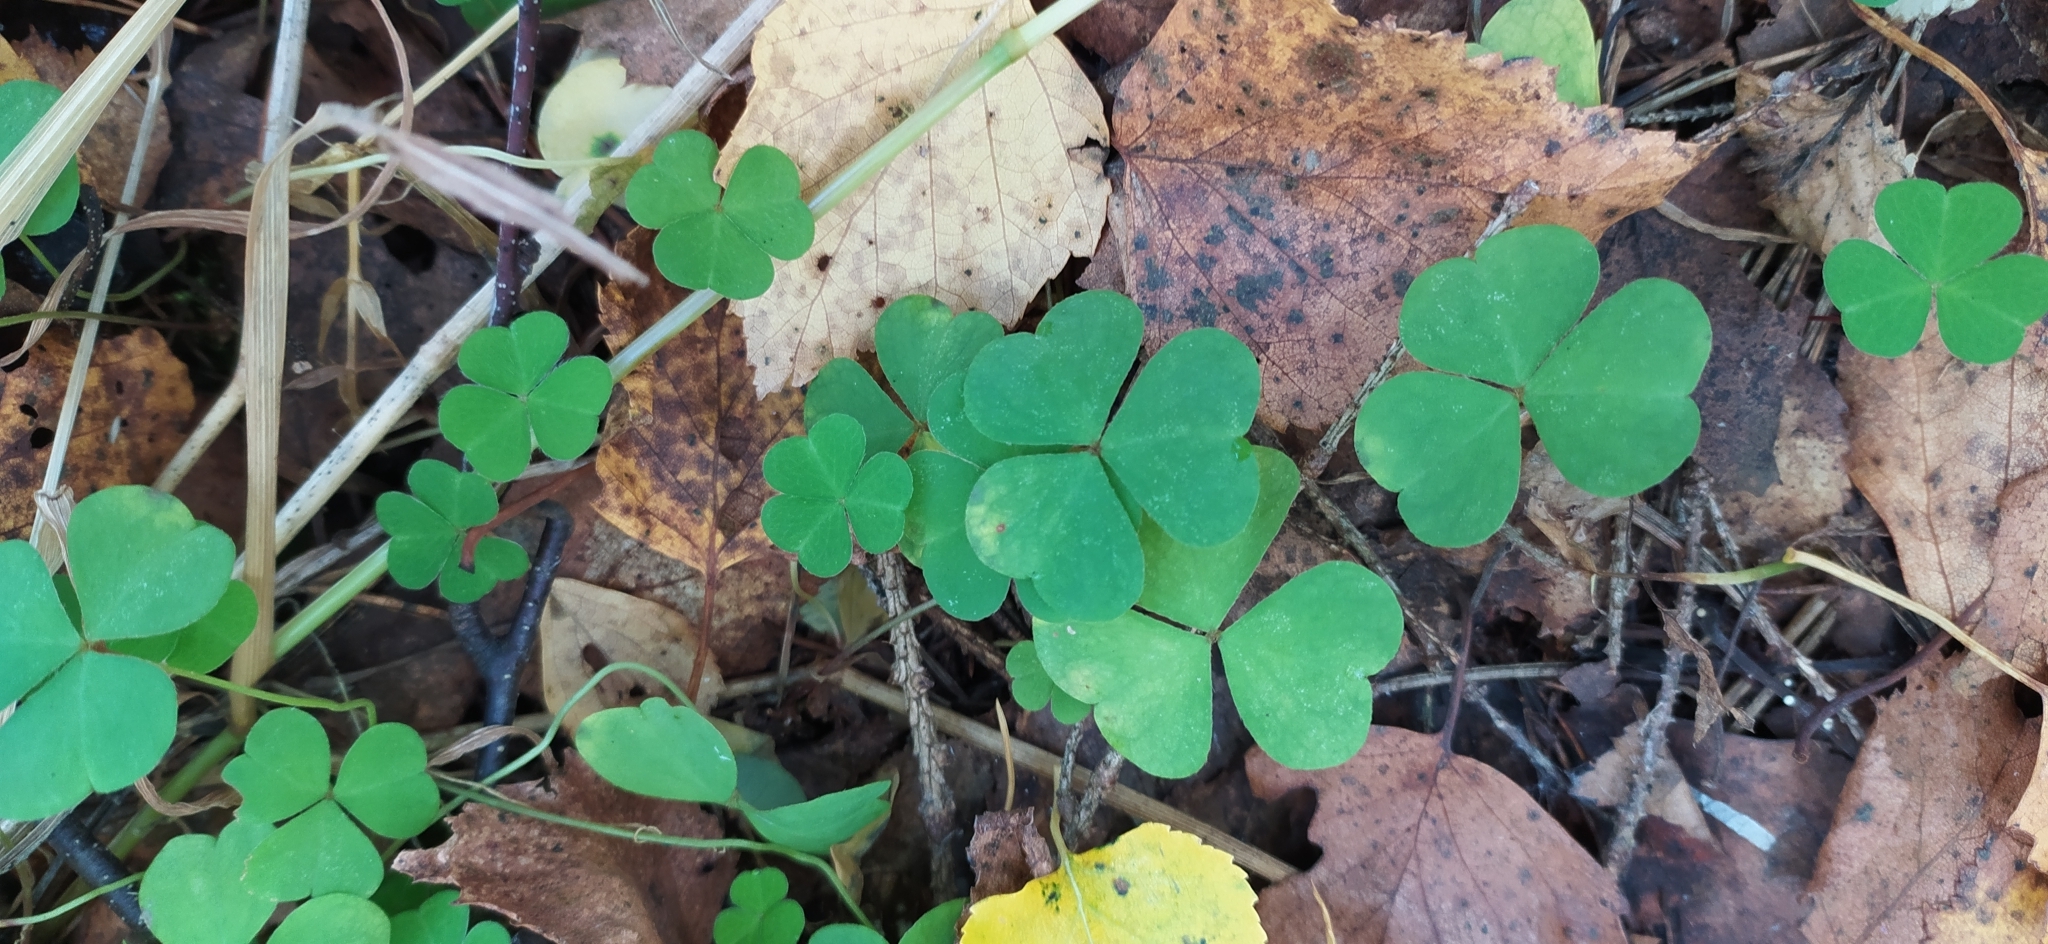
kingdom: Plantae
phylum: Tracheophyta
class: Magnoliopsida
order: Oxalidales
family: Oxalidaceae
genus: Oxalis
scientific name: Oxalis acetosella
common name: Wood-sorrel
